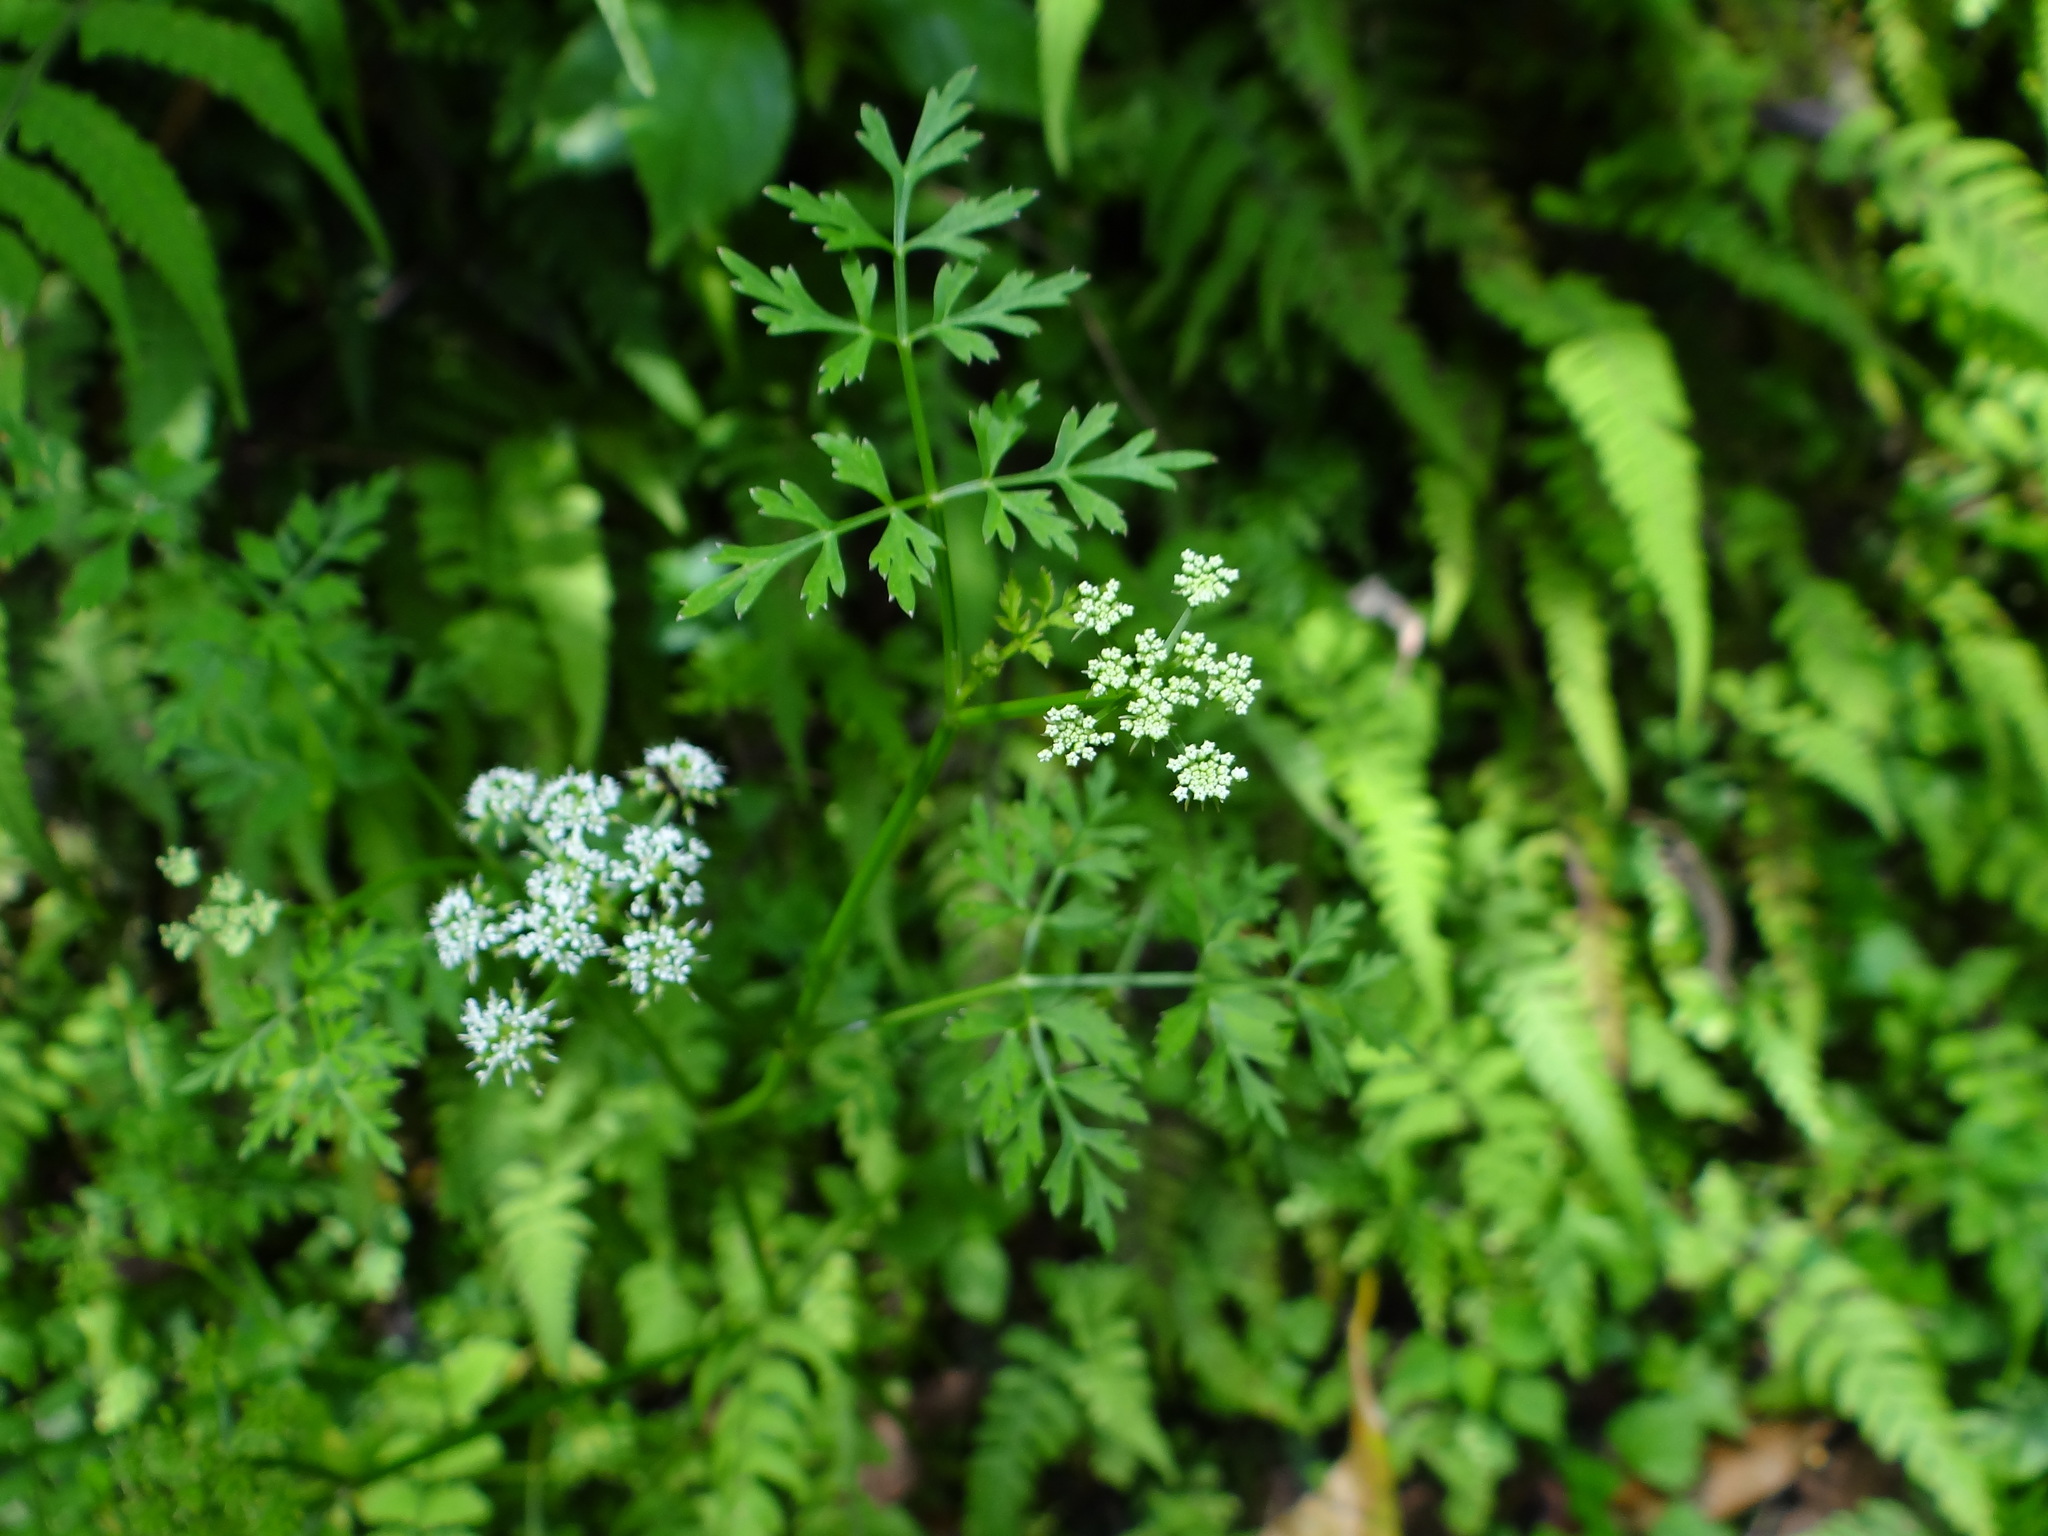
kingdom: Plantae
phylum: Tracheophyta
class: Magnoliopsida
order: Apiales
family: Apiaceae
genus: Oenanthe
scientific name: Oenanthe javanica
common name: Java water-dropwort
